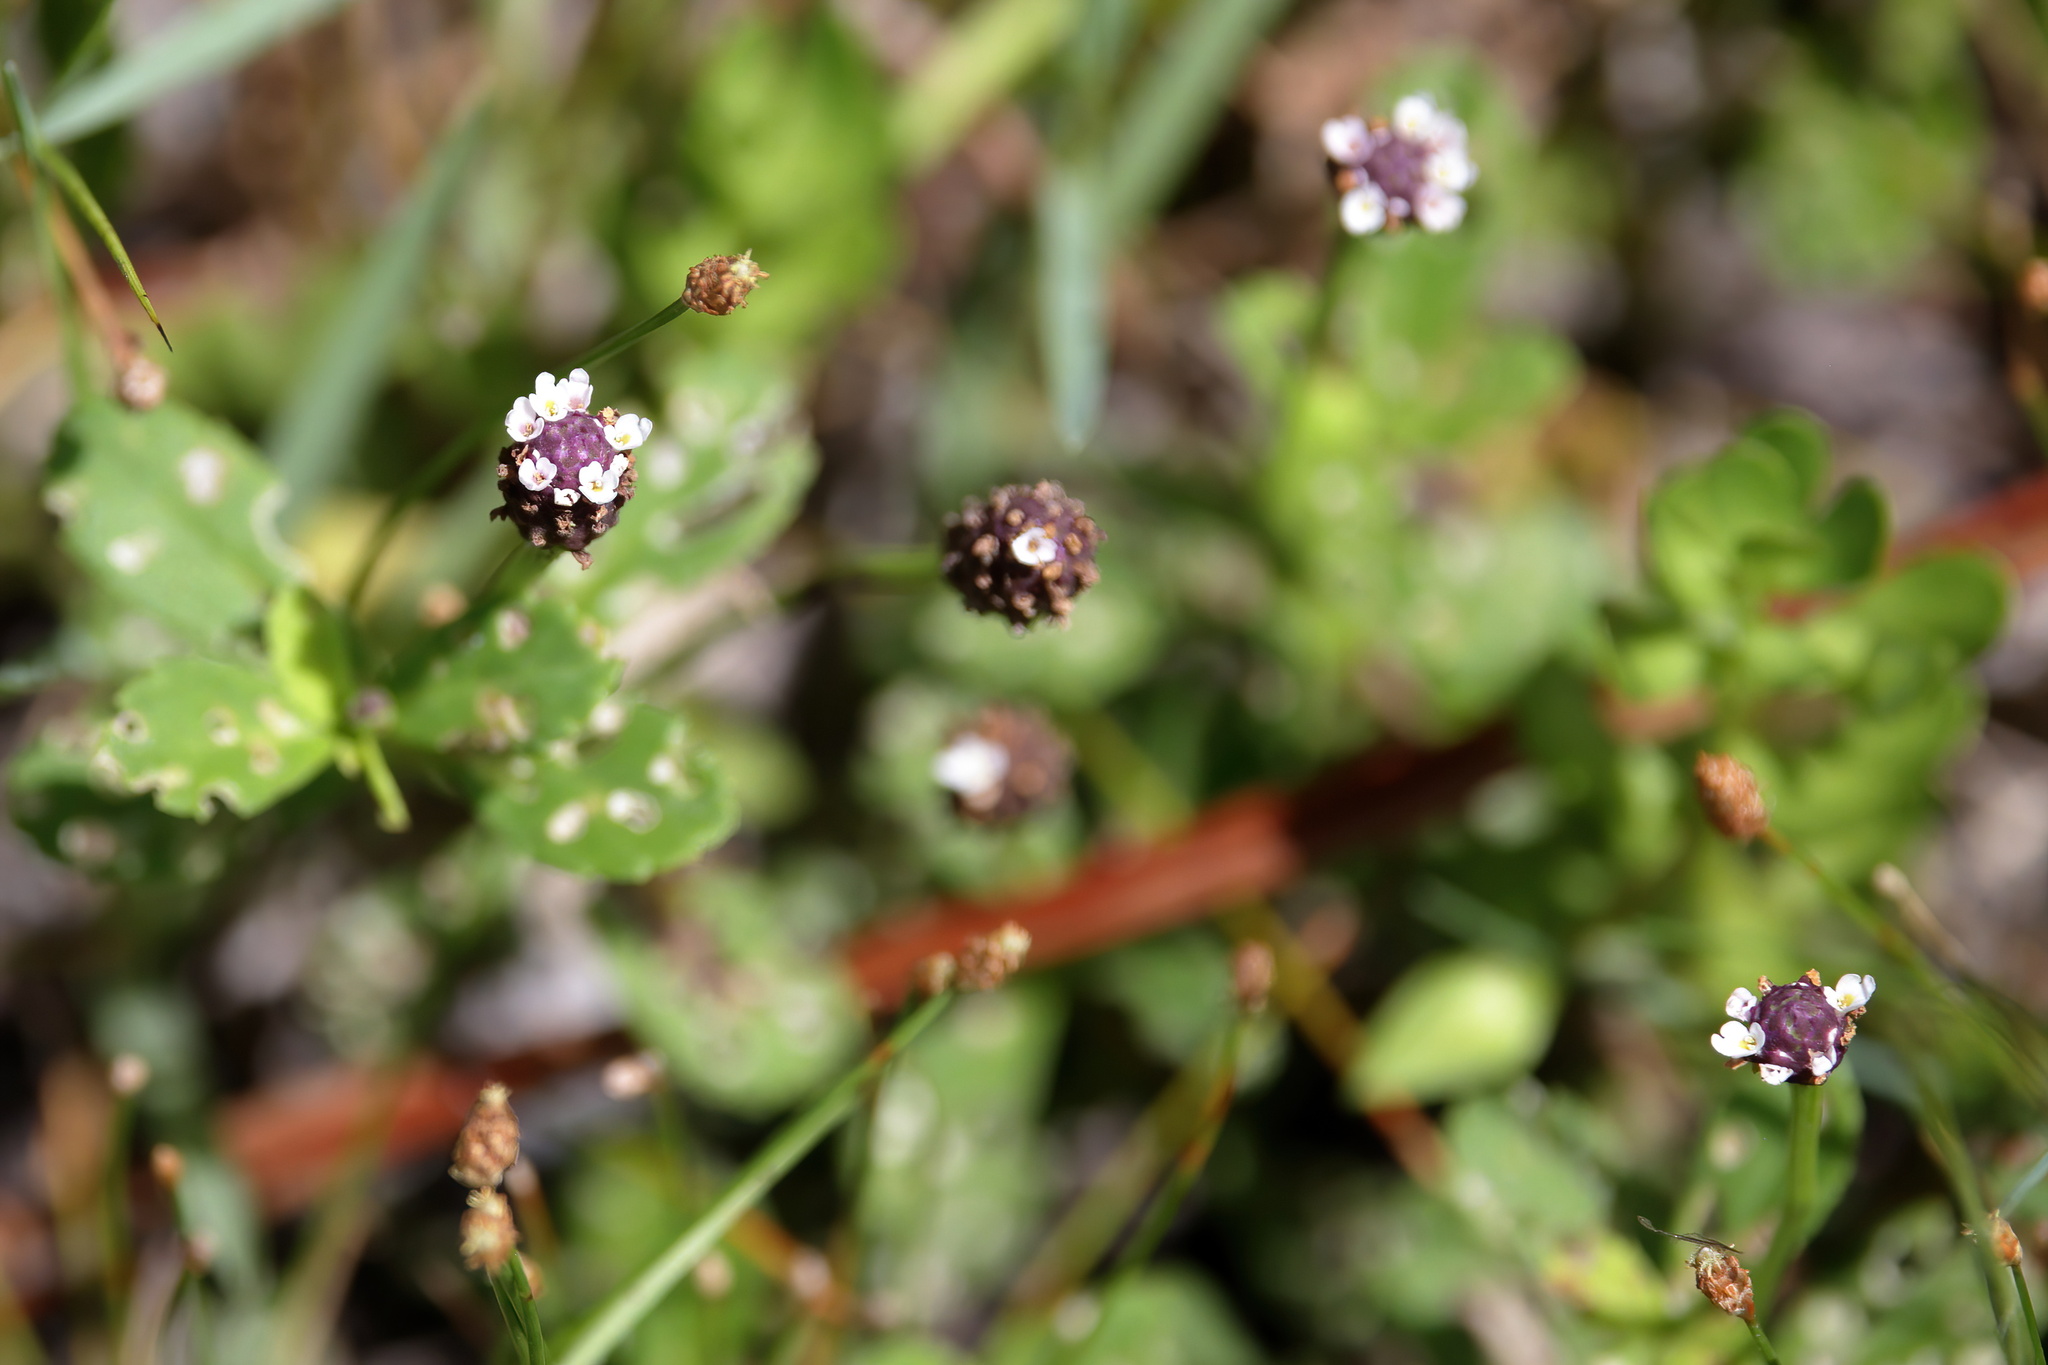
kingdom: Plantae
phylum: Tracheophyta
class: Magnoliopsida
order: Lamiales
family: Verbenaceae
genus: Phyla
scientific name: Phyla nodiflora
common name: Frogfruit
